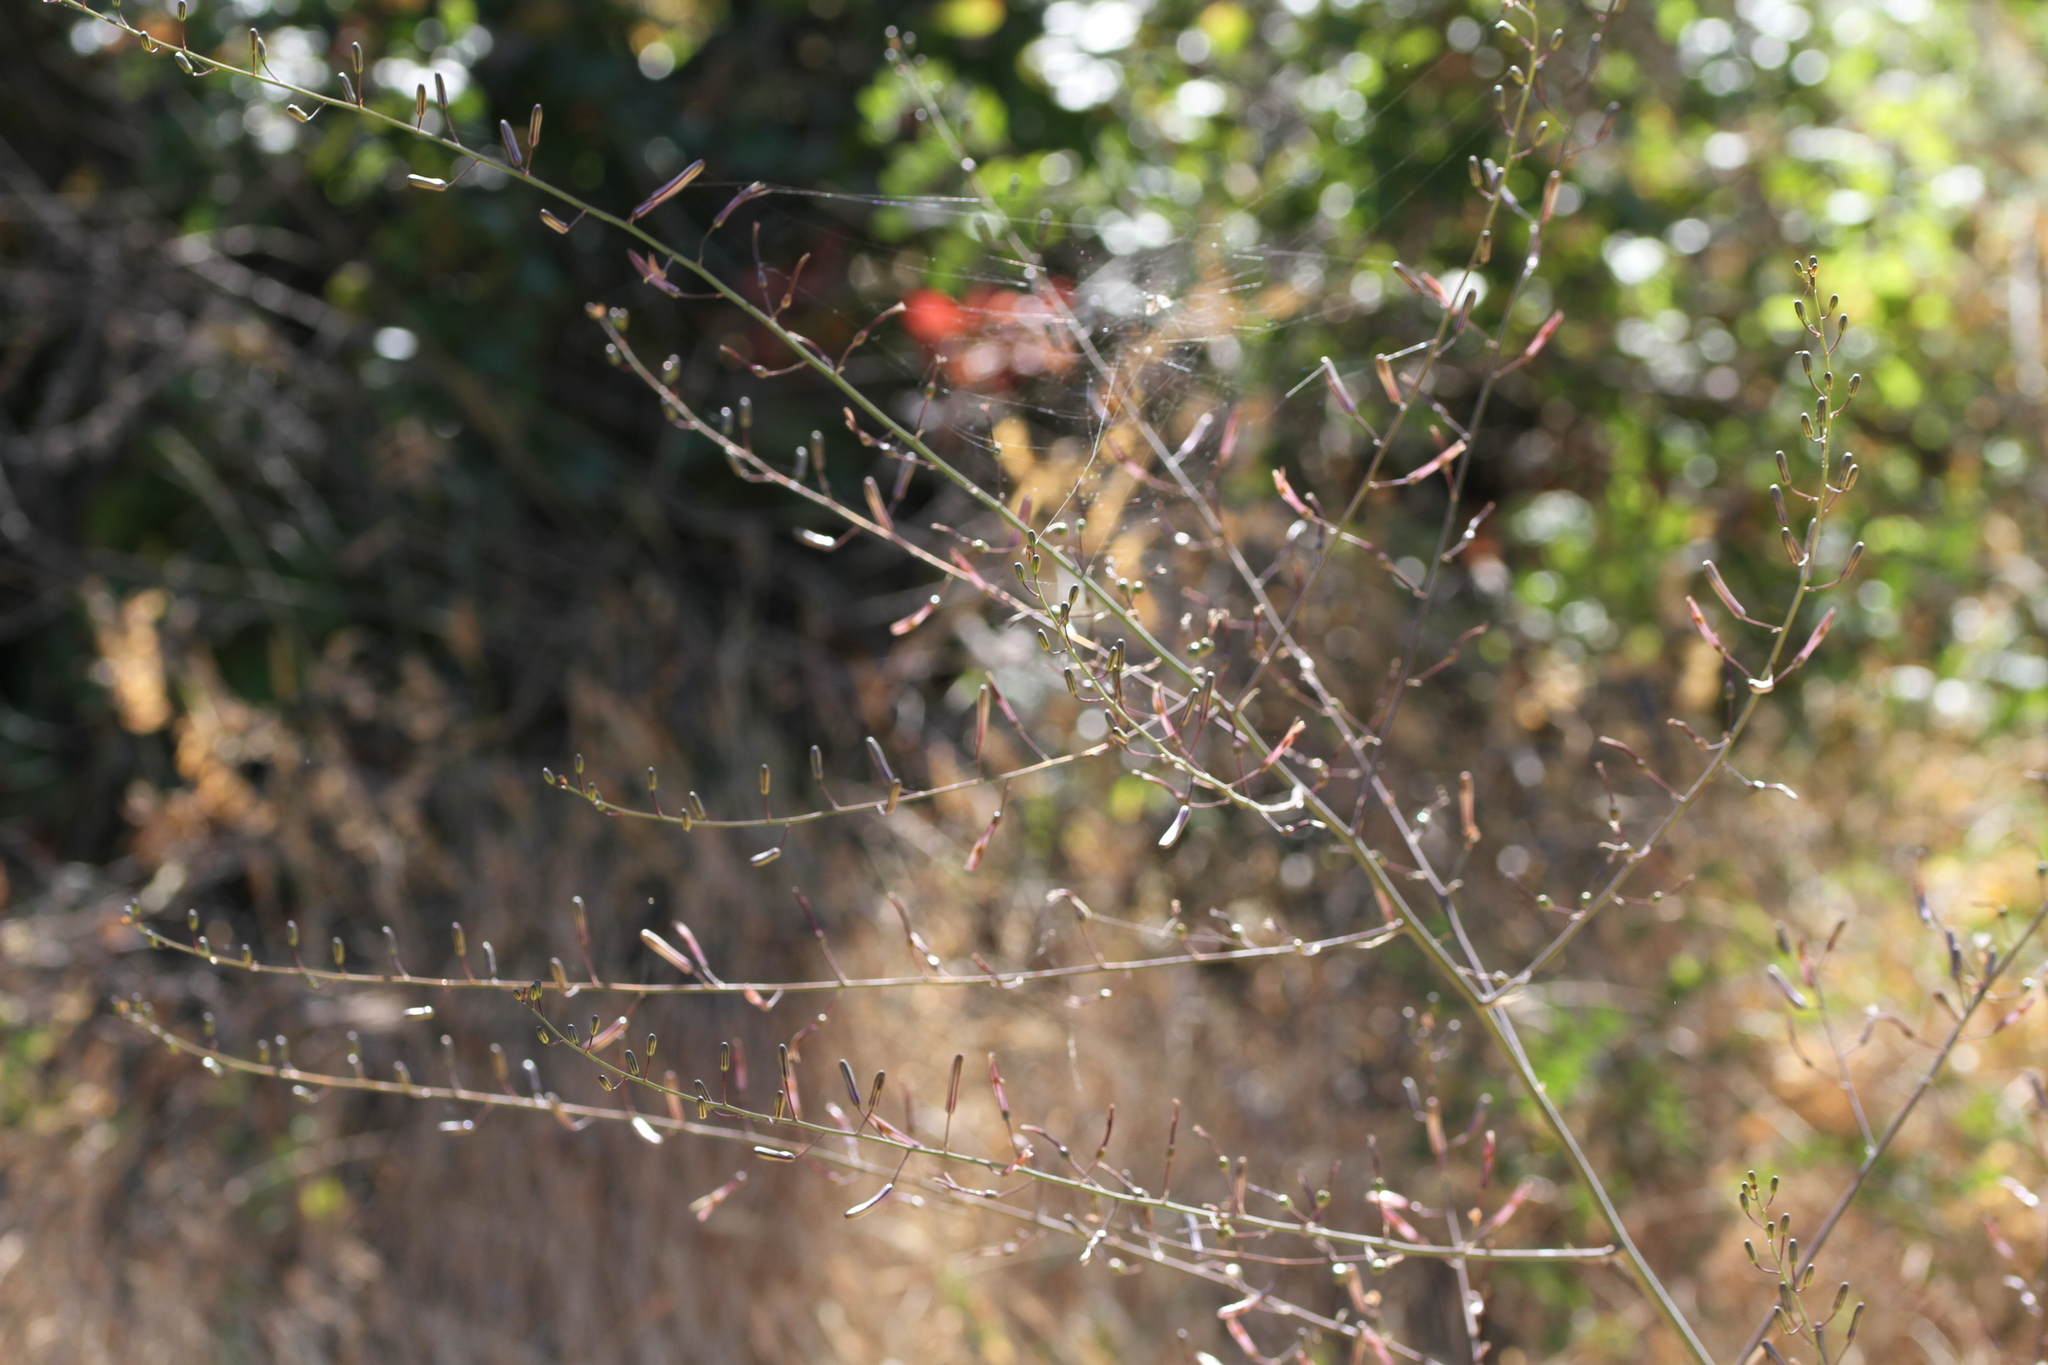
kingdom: Plantae
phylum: Tracheophyta
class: Liliopsida
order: Asparagales
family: Asparagaceae
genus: Chlorogalum
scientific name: Chlorogalum pomeridianum
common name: Amole
